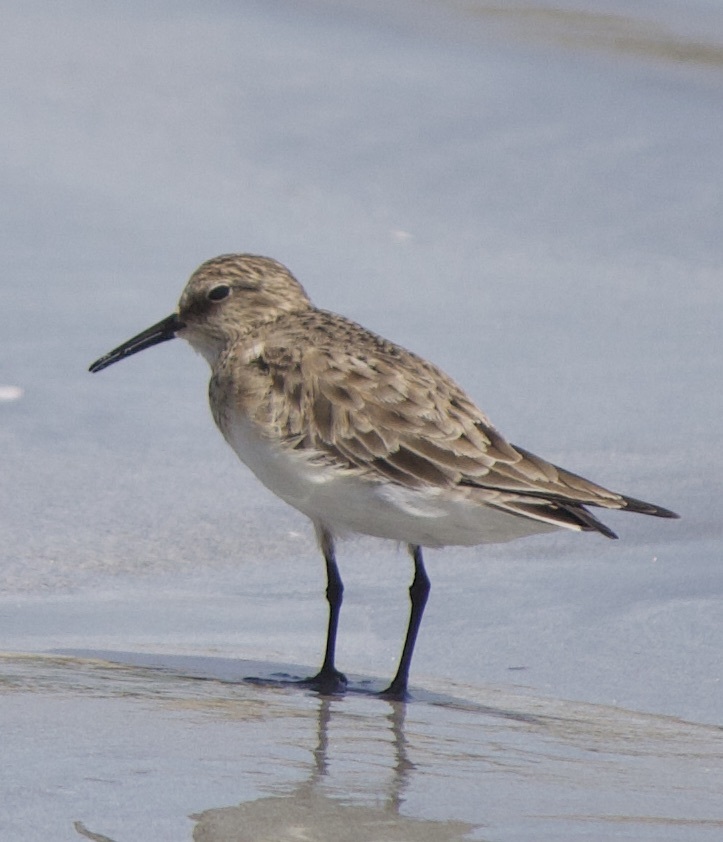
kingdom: Animalia
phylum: Chordata
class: Aves
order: Charadriiformes
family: Scolopacidae
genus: Calidris
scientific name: Calidris bairdii
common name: Baird's sandpiper
